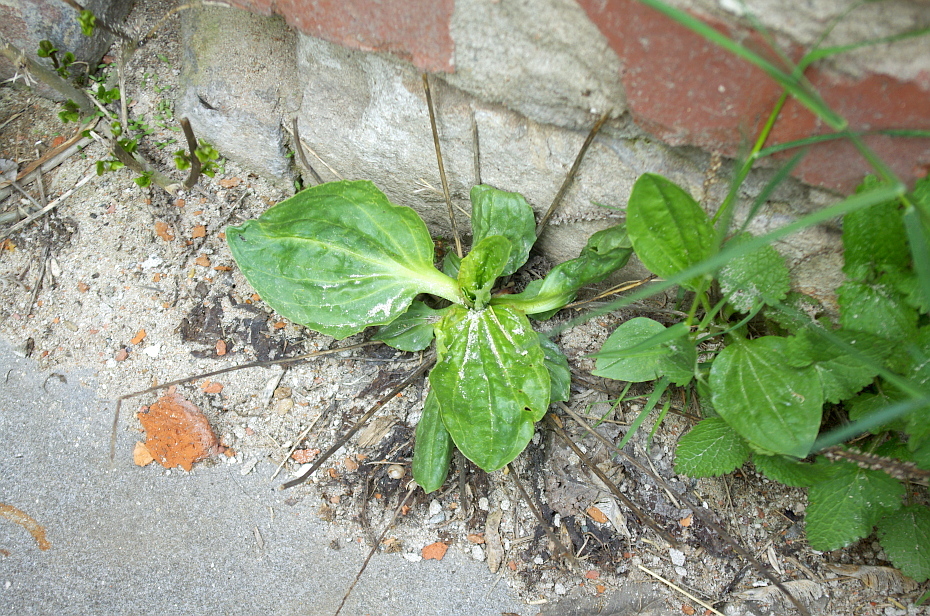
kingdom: Plantae
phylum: Tracheophyta
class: Magnoliopsida
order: Lamiales
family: Plantaginaceae
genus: Plantago
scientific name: Plantago major
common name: Common plantain
